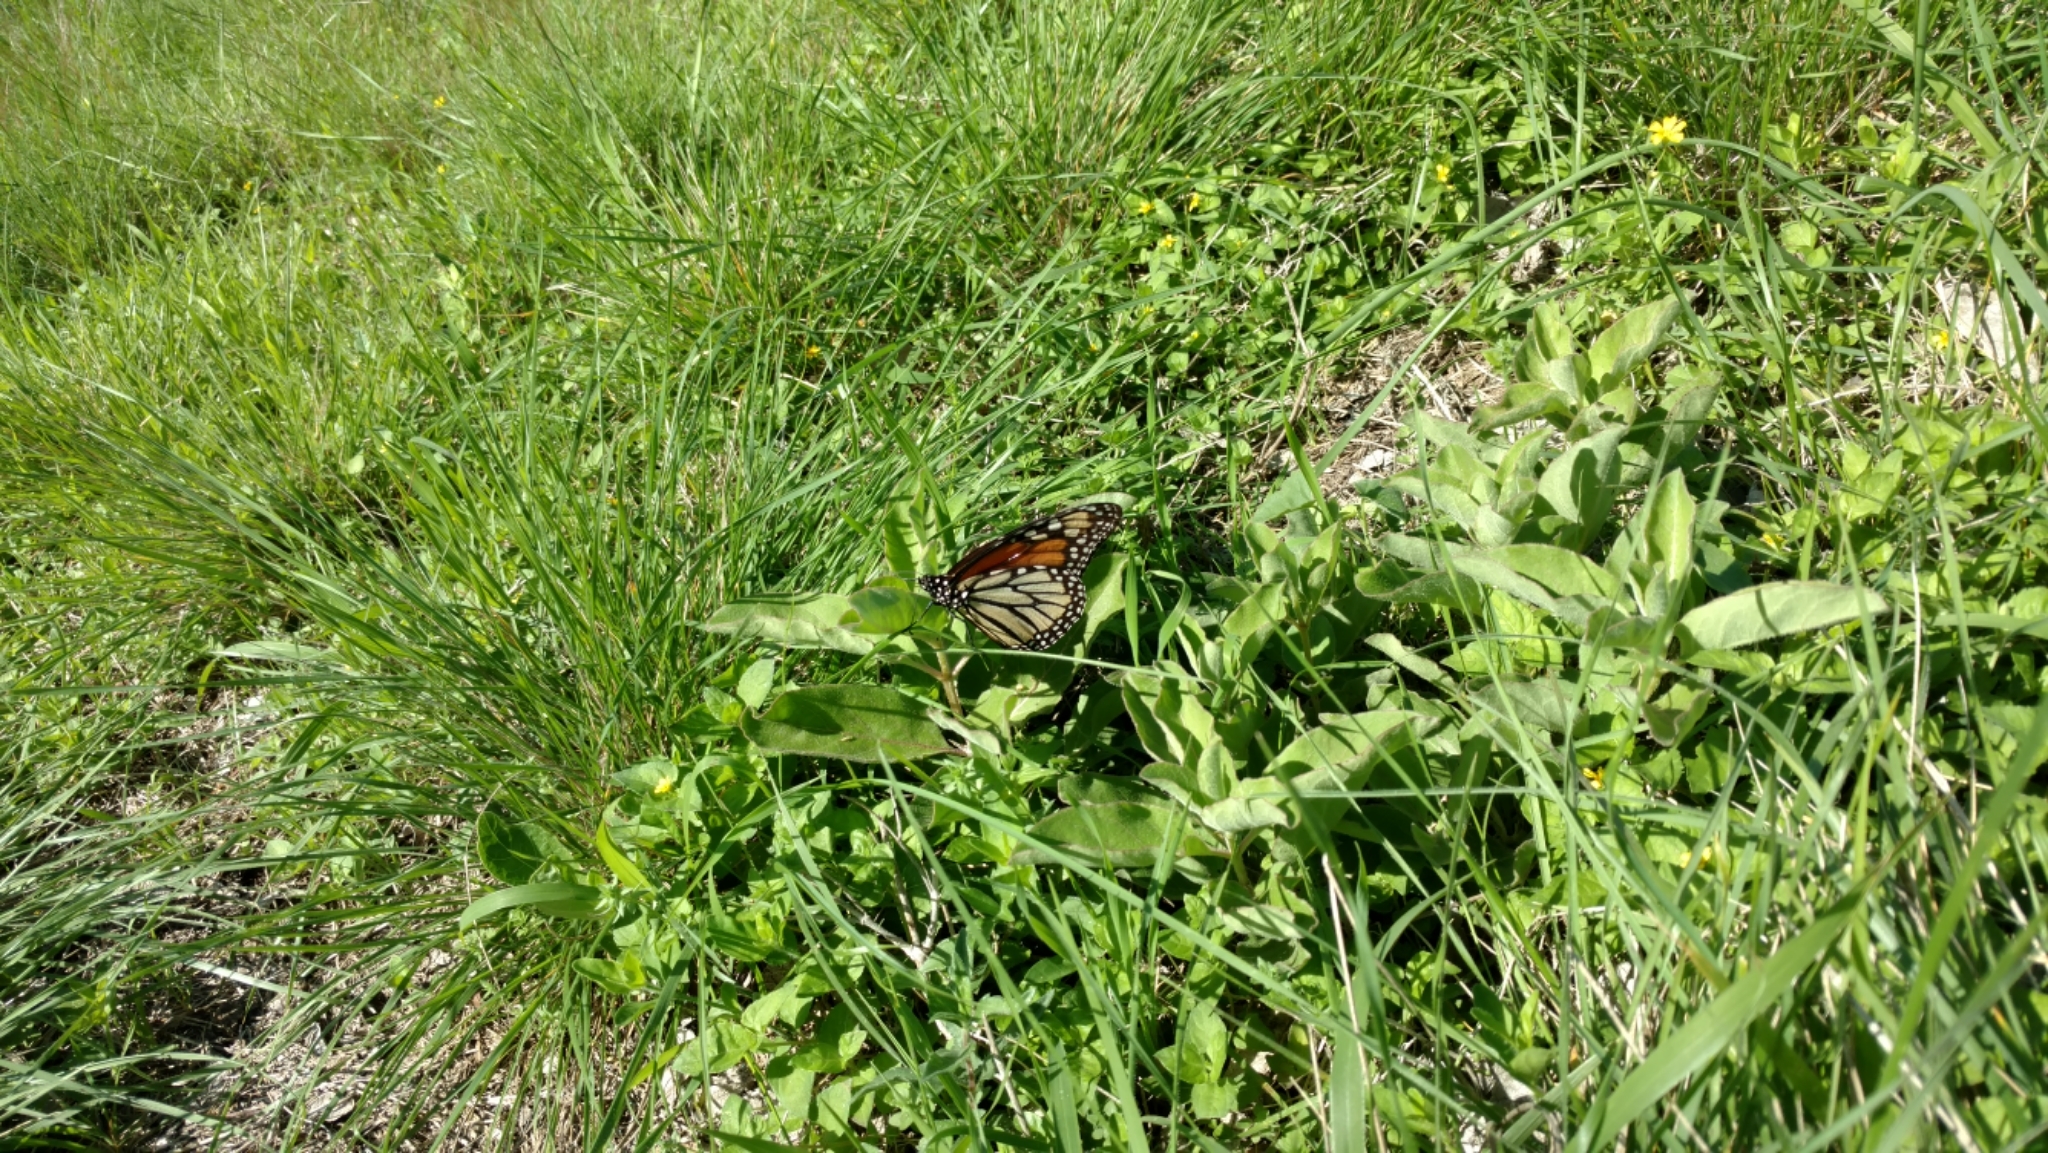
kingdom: Animalia
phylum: Arthropoda
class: Insecta
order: Lepidoptera
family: Nymphalidae
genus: Danaus
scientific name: Danaus plexippus
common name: Monarch
